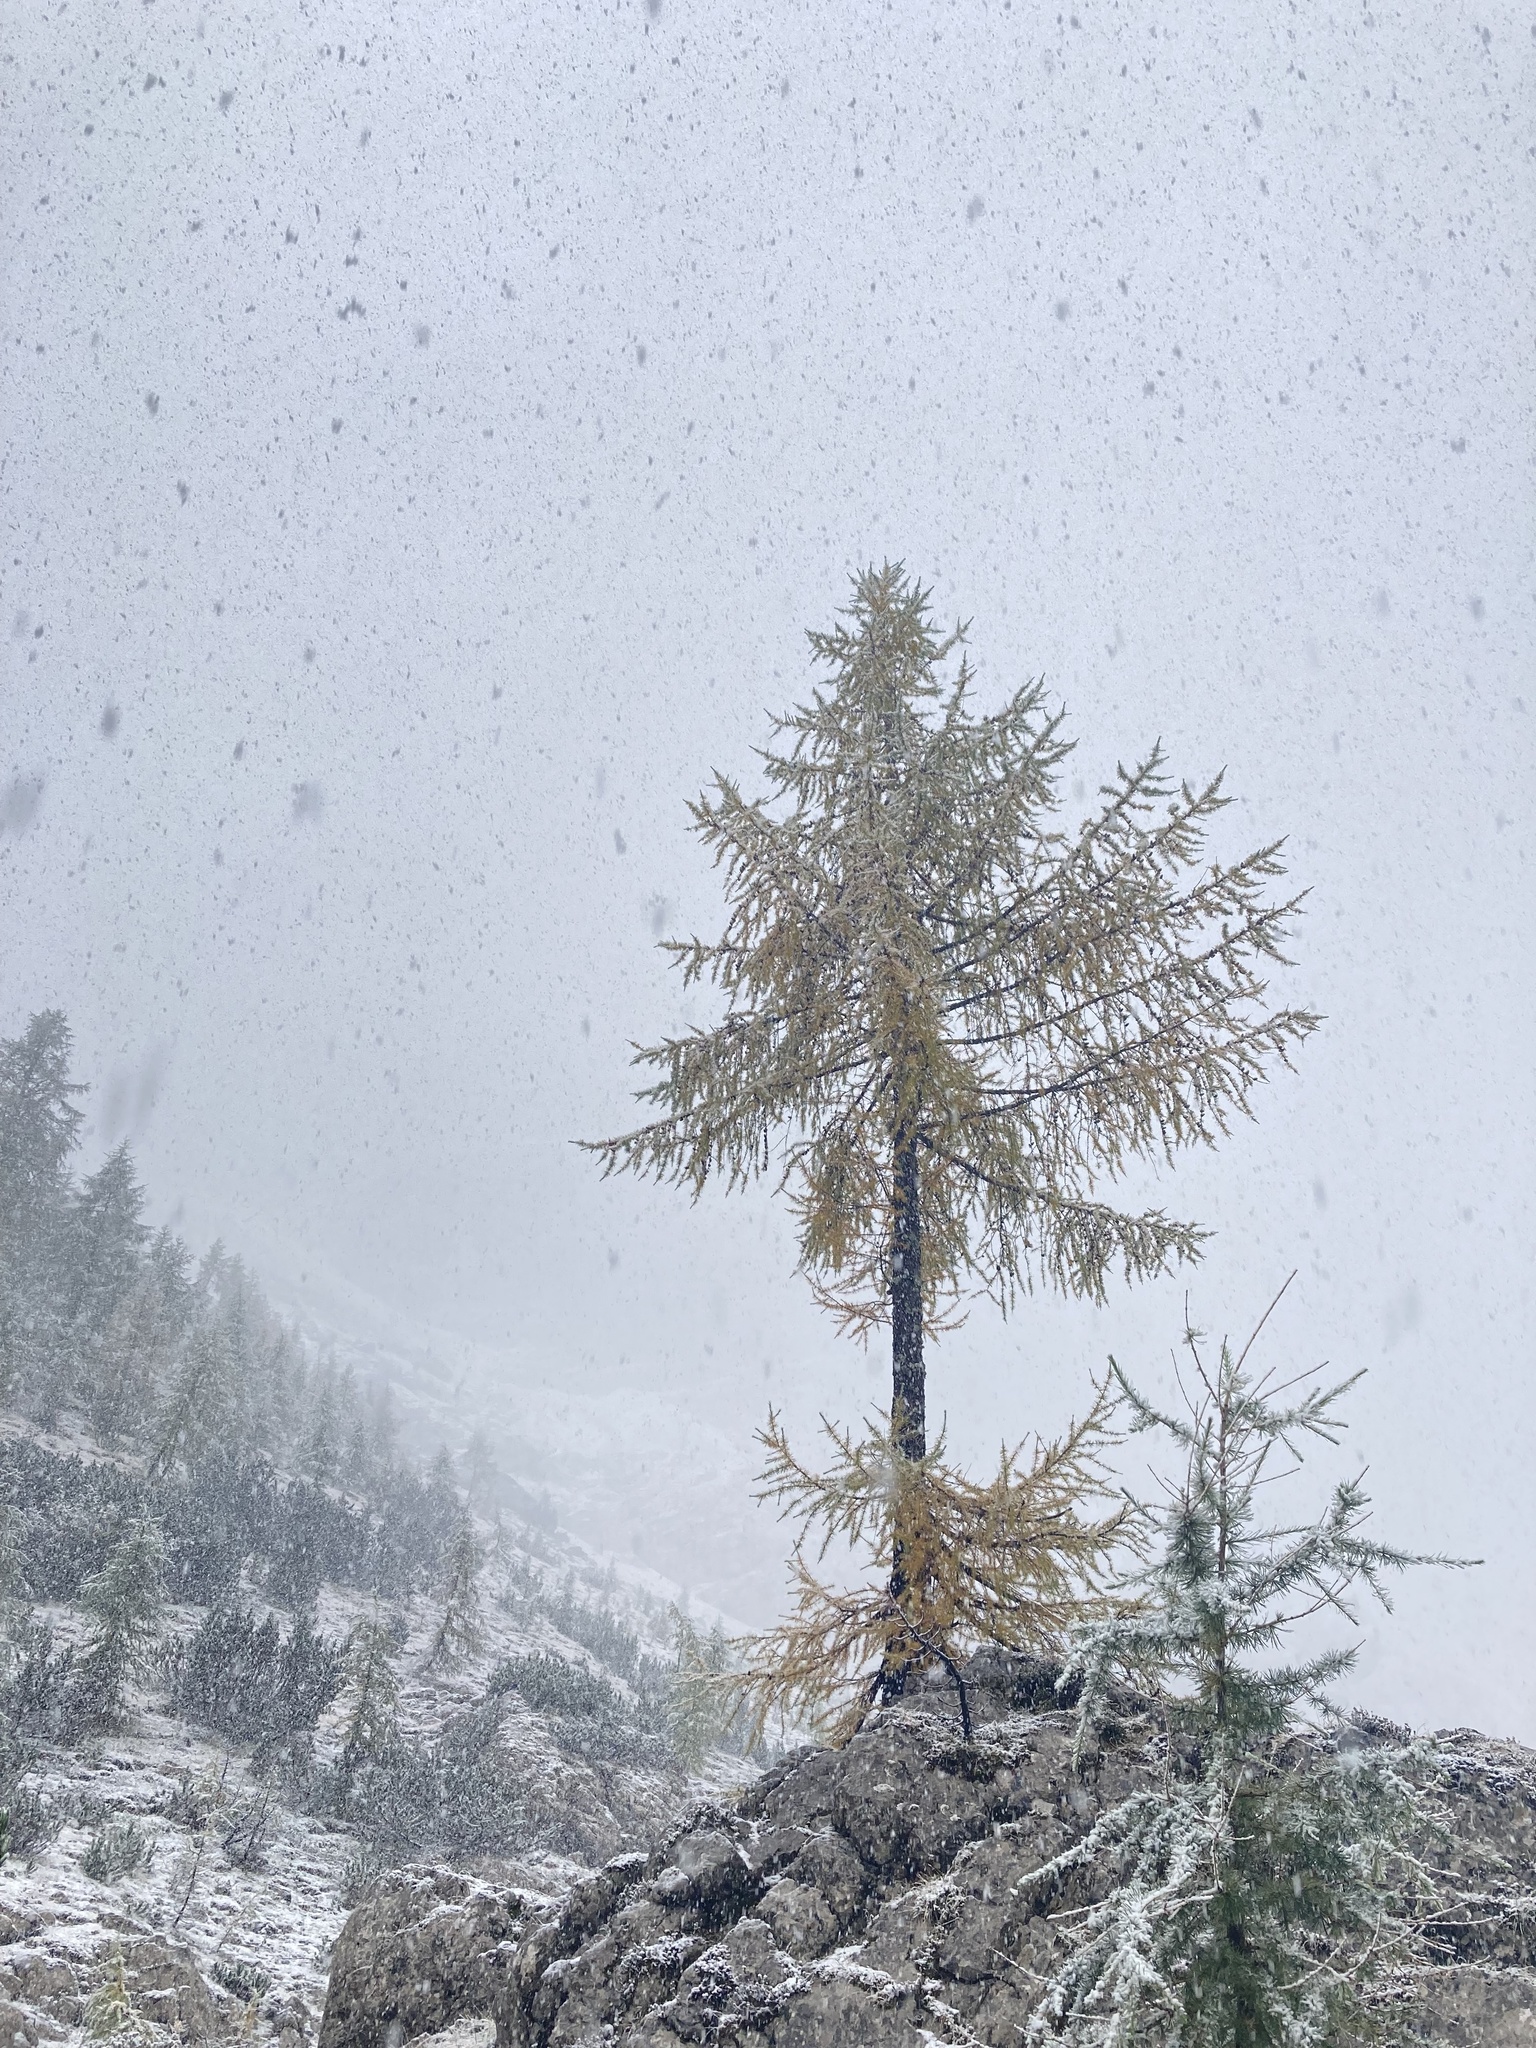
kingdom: Plantae
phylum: Tracheophyta
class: Pinopsida
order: Pinales
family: Pinaceae
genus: Larix
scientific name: Larix decidua
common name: European larch
